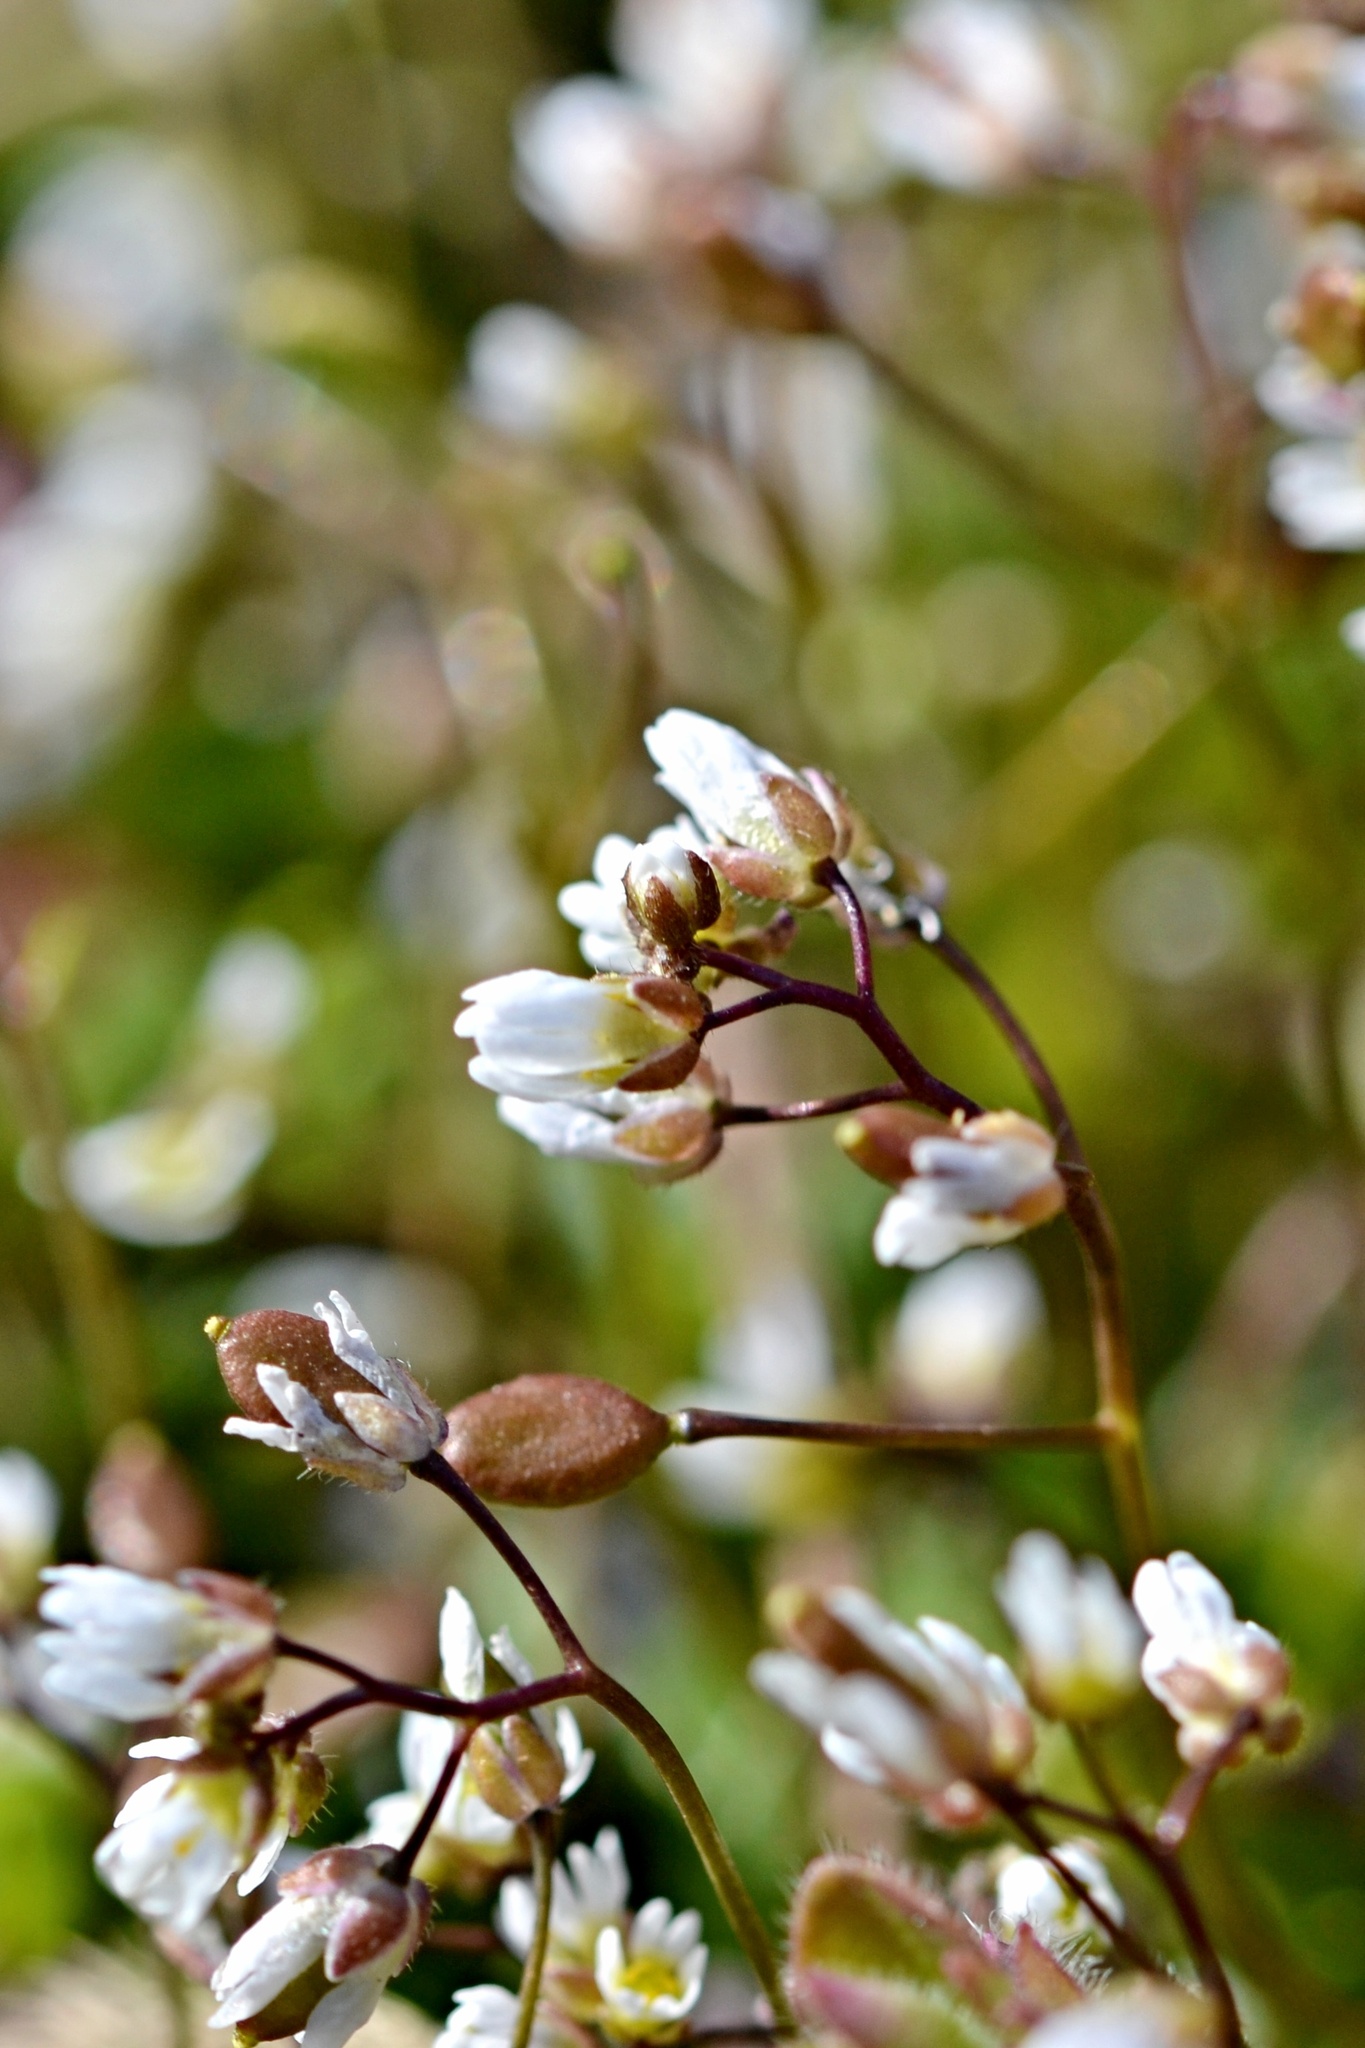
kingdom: Plantae
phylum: Tracheophyta
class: Magnoliopsida
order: Brassicales
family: Brassicaceae
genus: Draba
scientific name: Draba verna
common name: Spring draba
